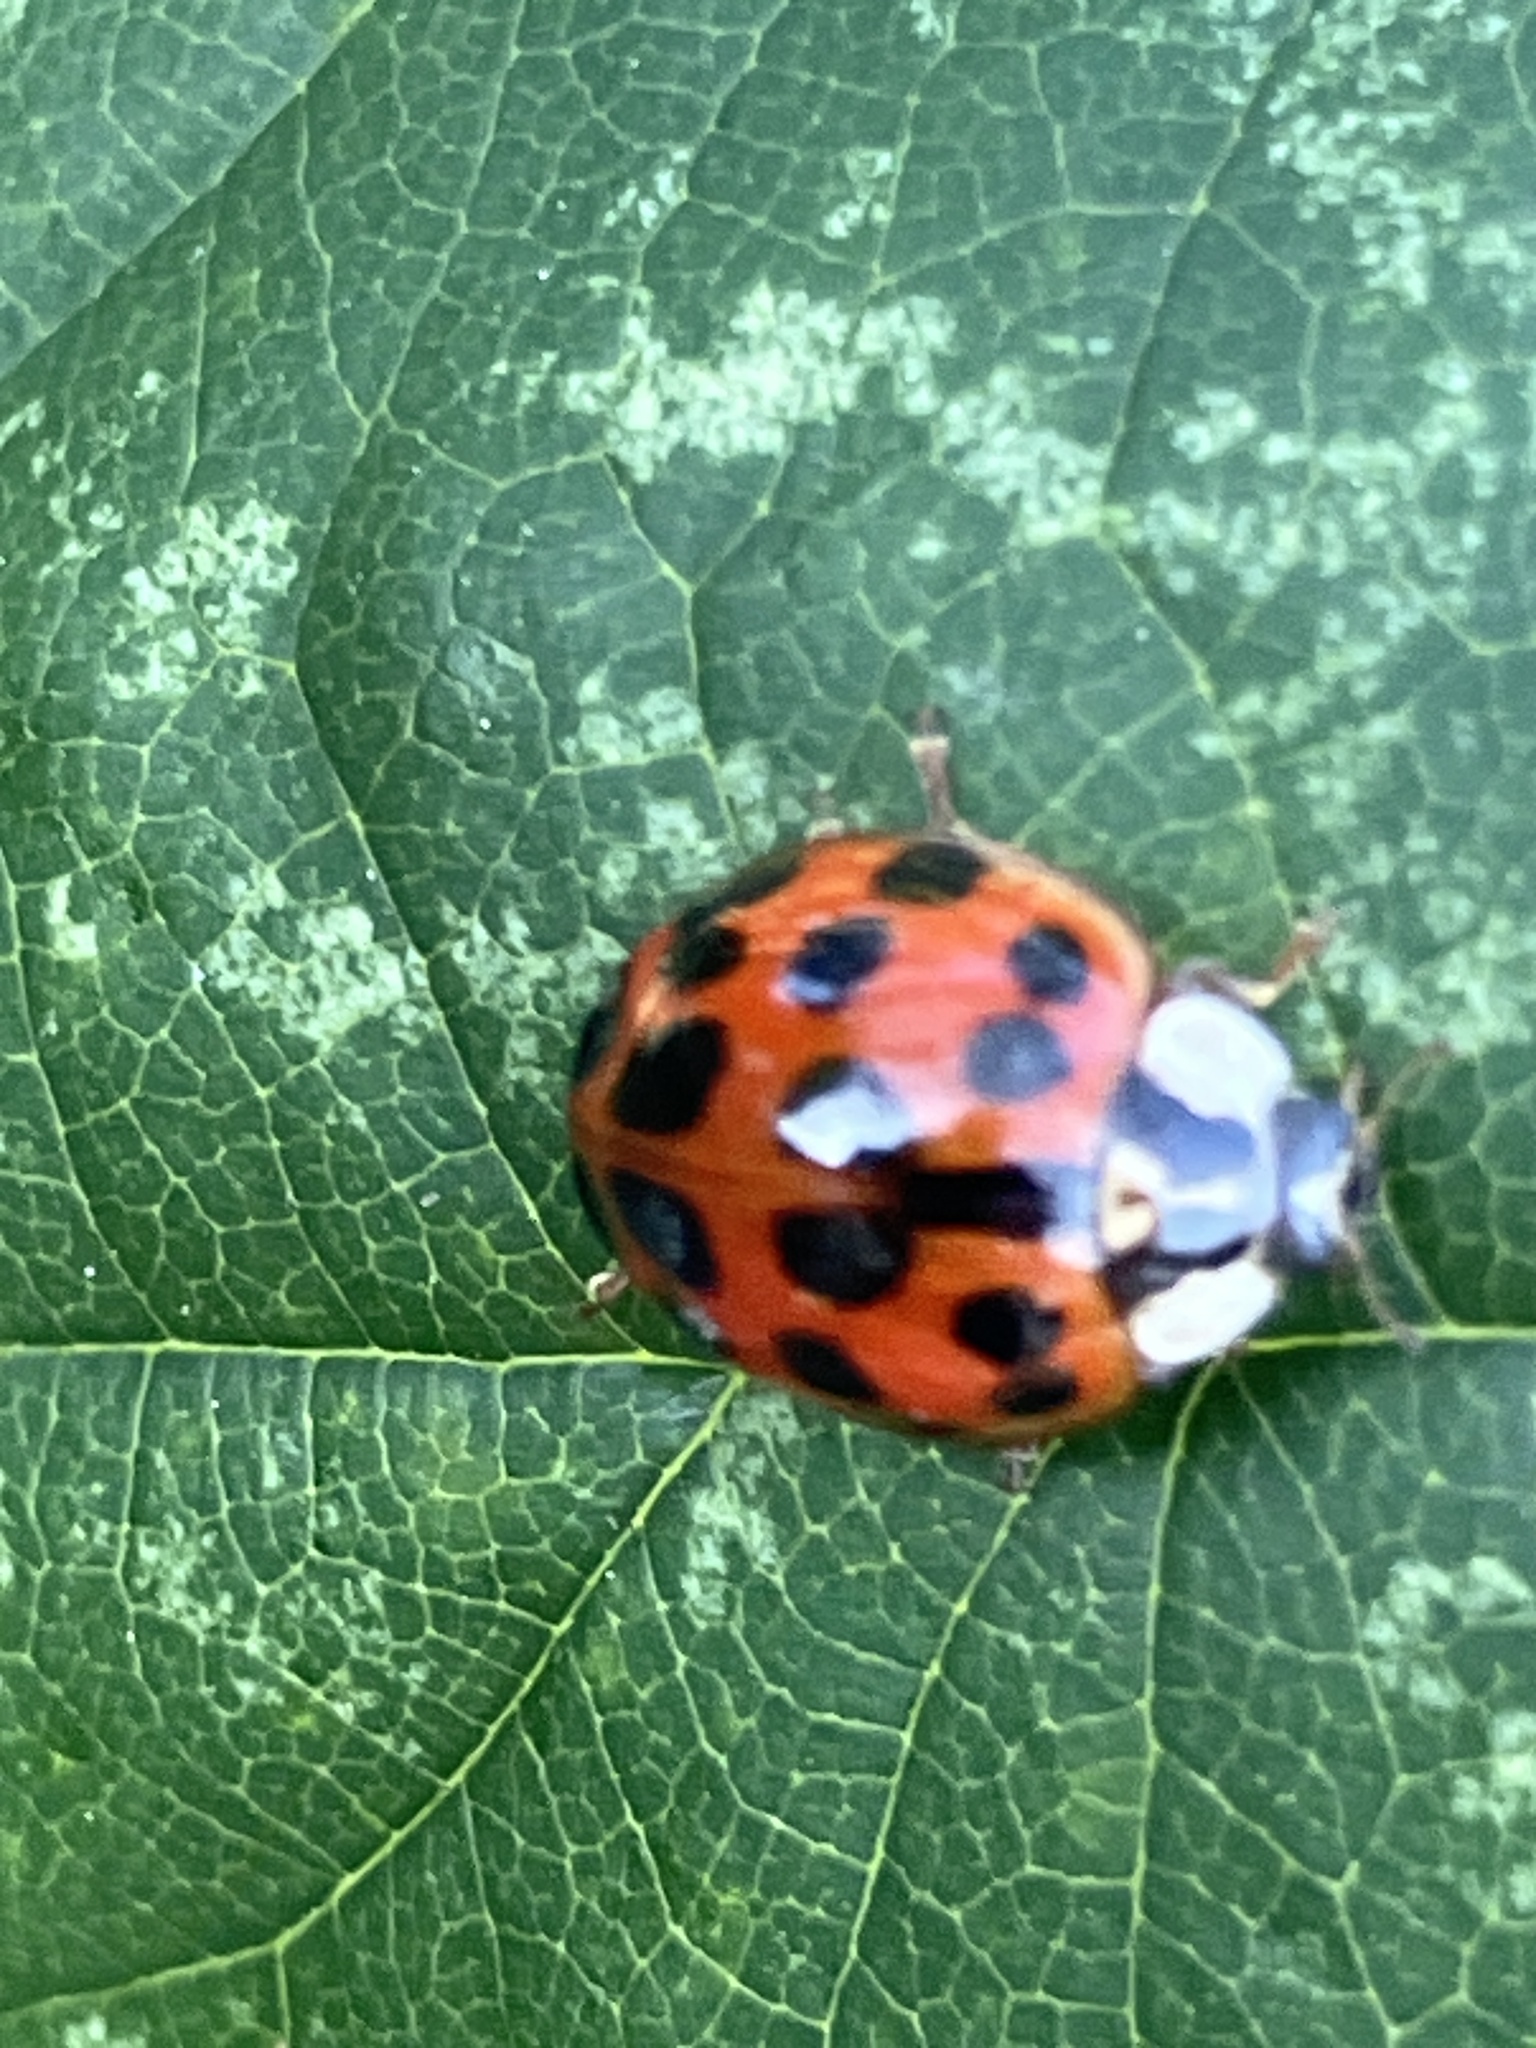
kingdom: Animalia
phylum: Arthropoda
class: Insecta
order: Coleoptera
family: Coccinellidae
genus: Harmonia
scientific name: Harmonia axyridis
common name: Harlequin ladybird
